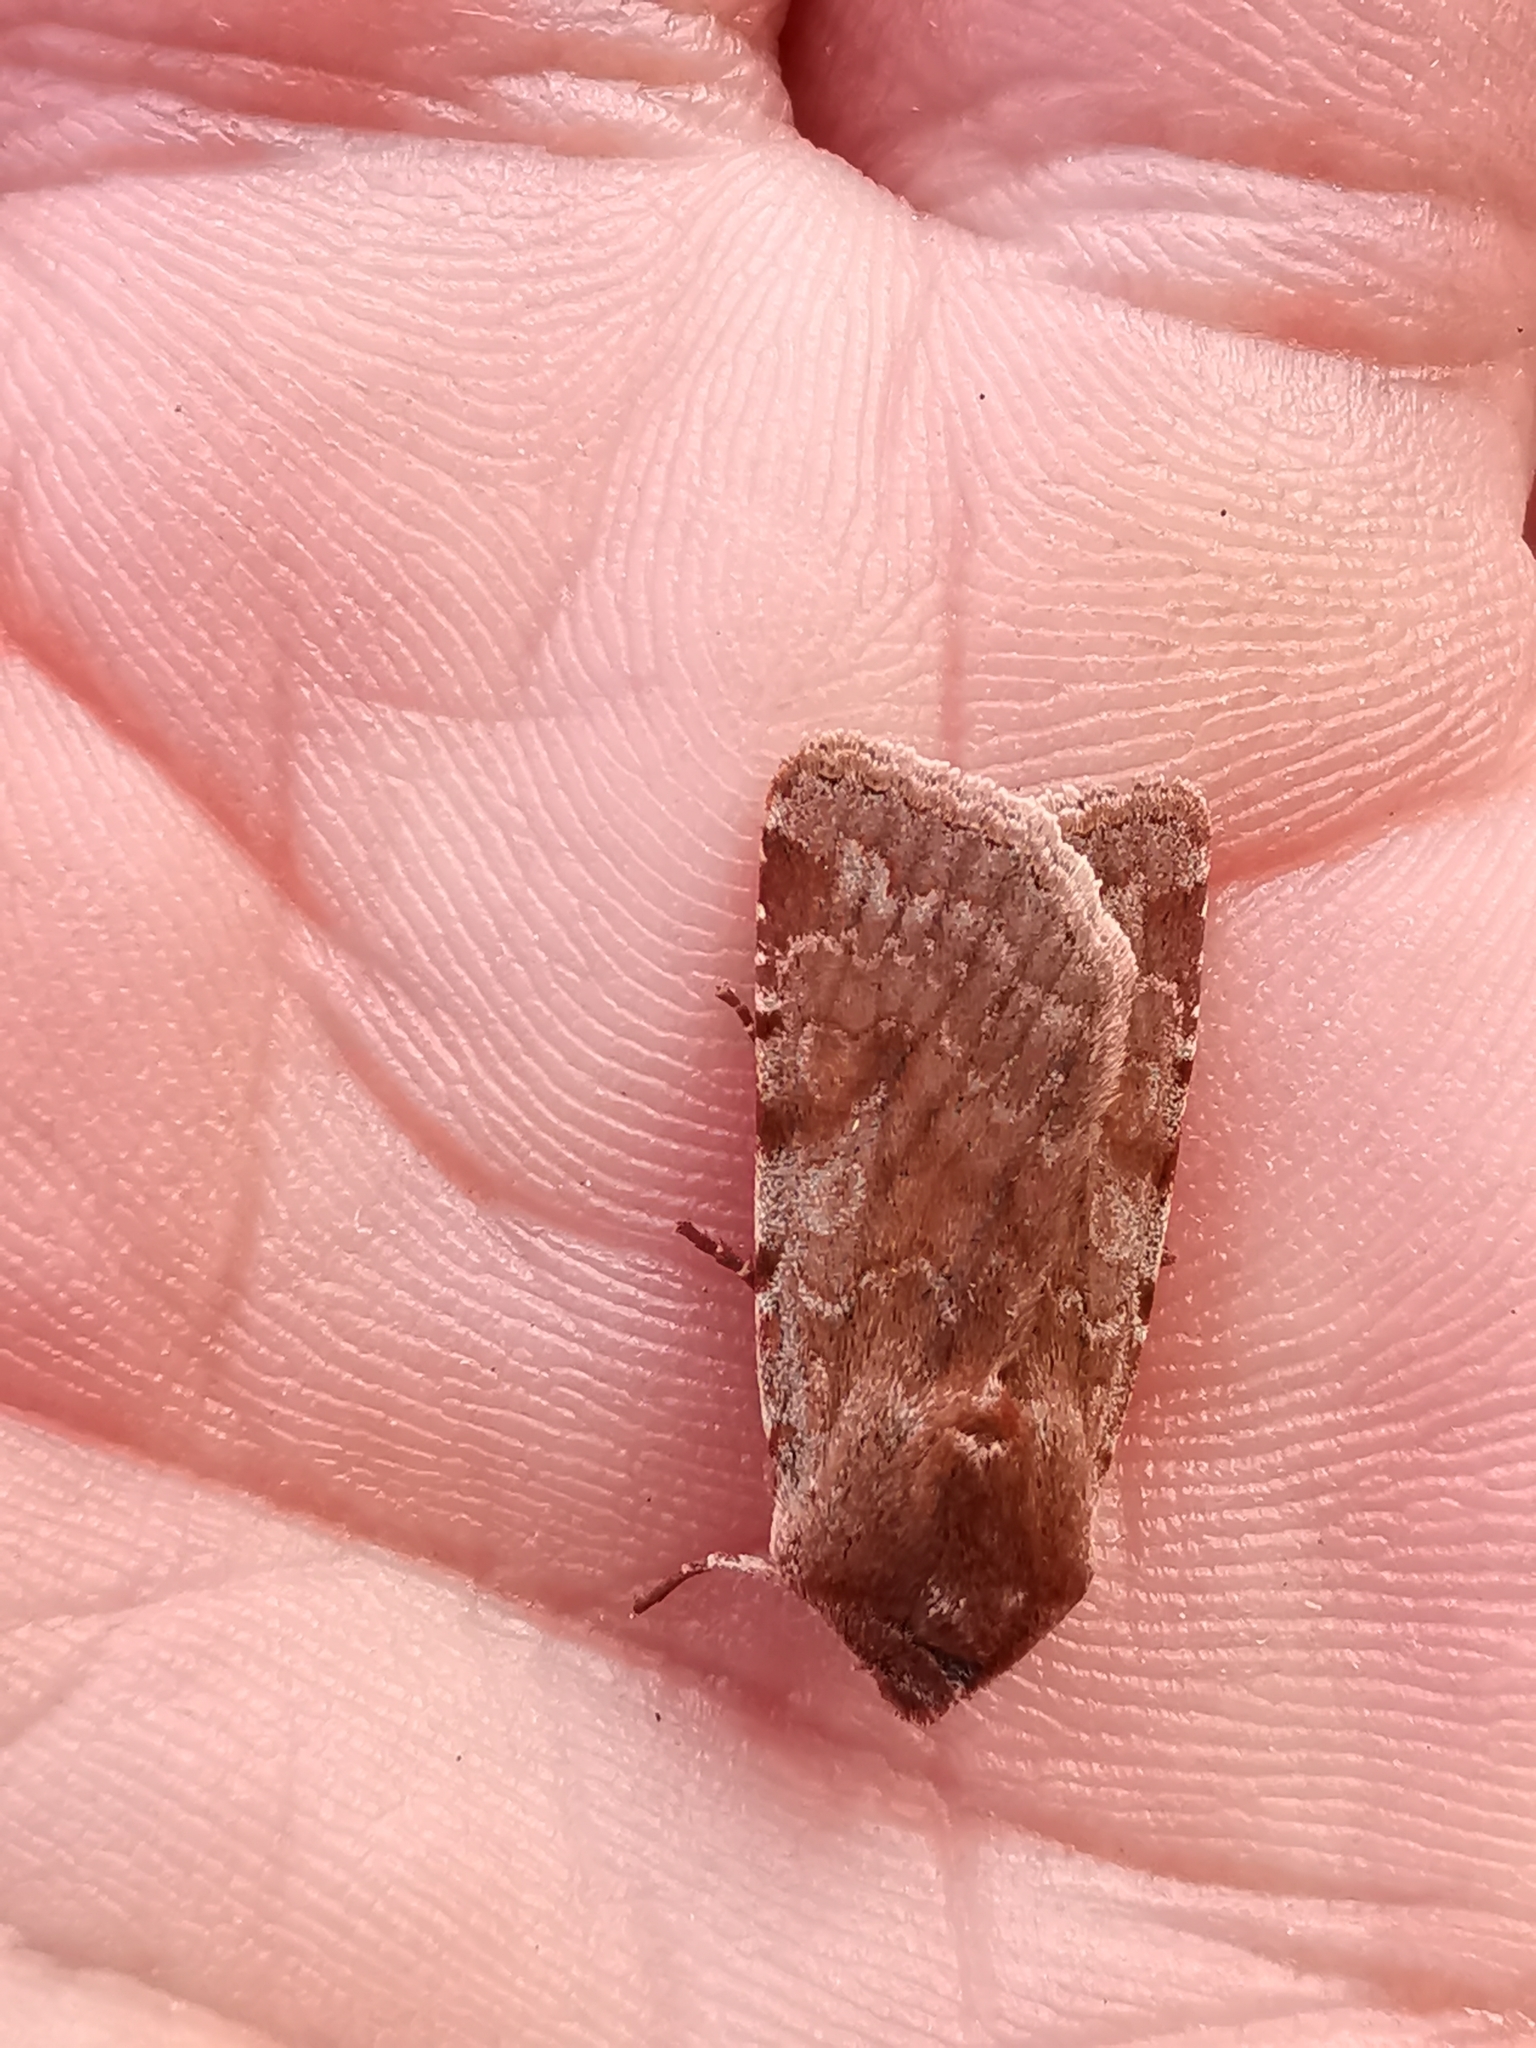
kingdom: Animalia
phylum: Arthropoda
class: Insecta
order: Lepidoptera
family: Noctuidae
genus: Cerastis
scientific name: Cerastis rubricosa
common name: Red chestnut
